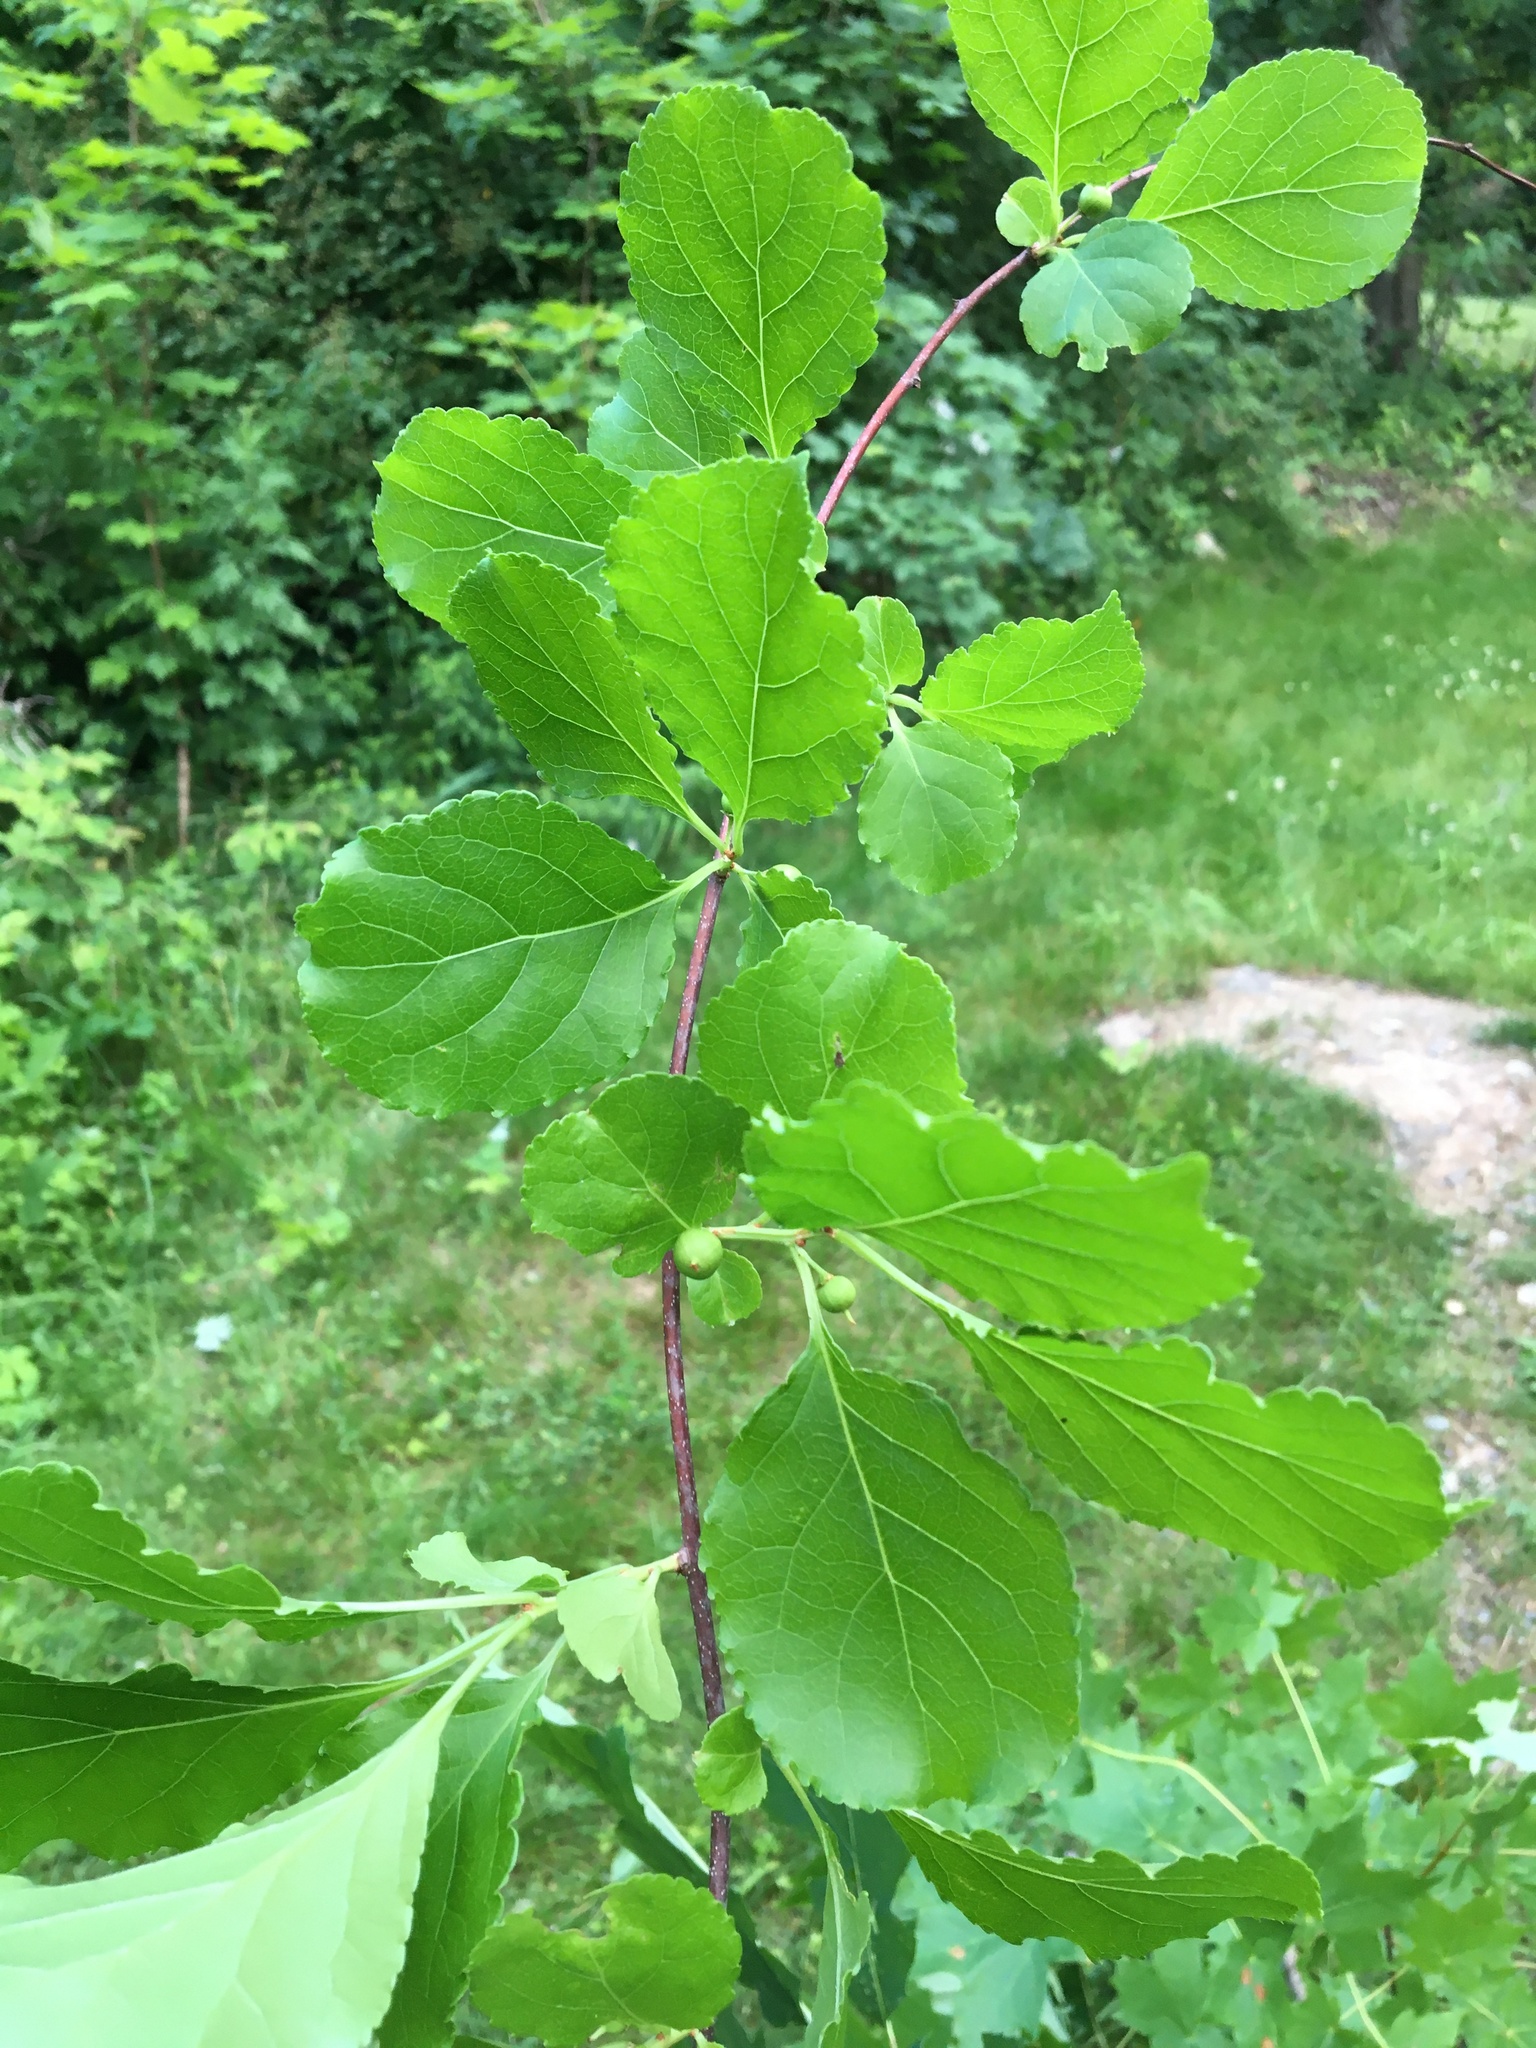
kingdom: Plantae
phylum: Tracheophyta
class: Magnoliopsida
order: Celastrales
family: Celastraceae
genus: Celastrus
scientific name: Celastrus orbiculatus
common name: Oriental bittersweet
